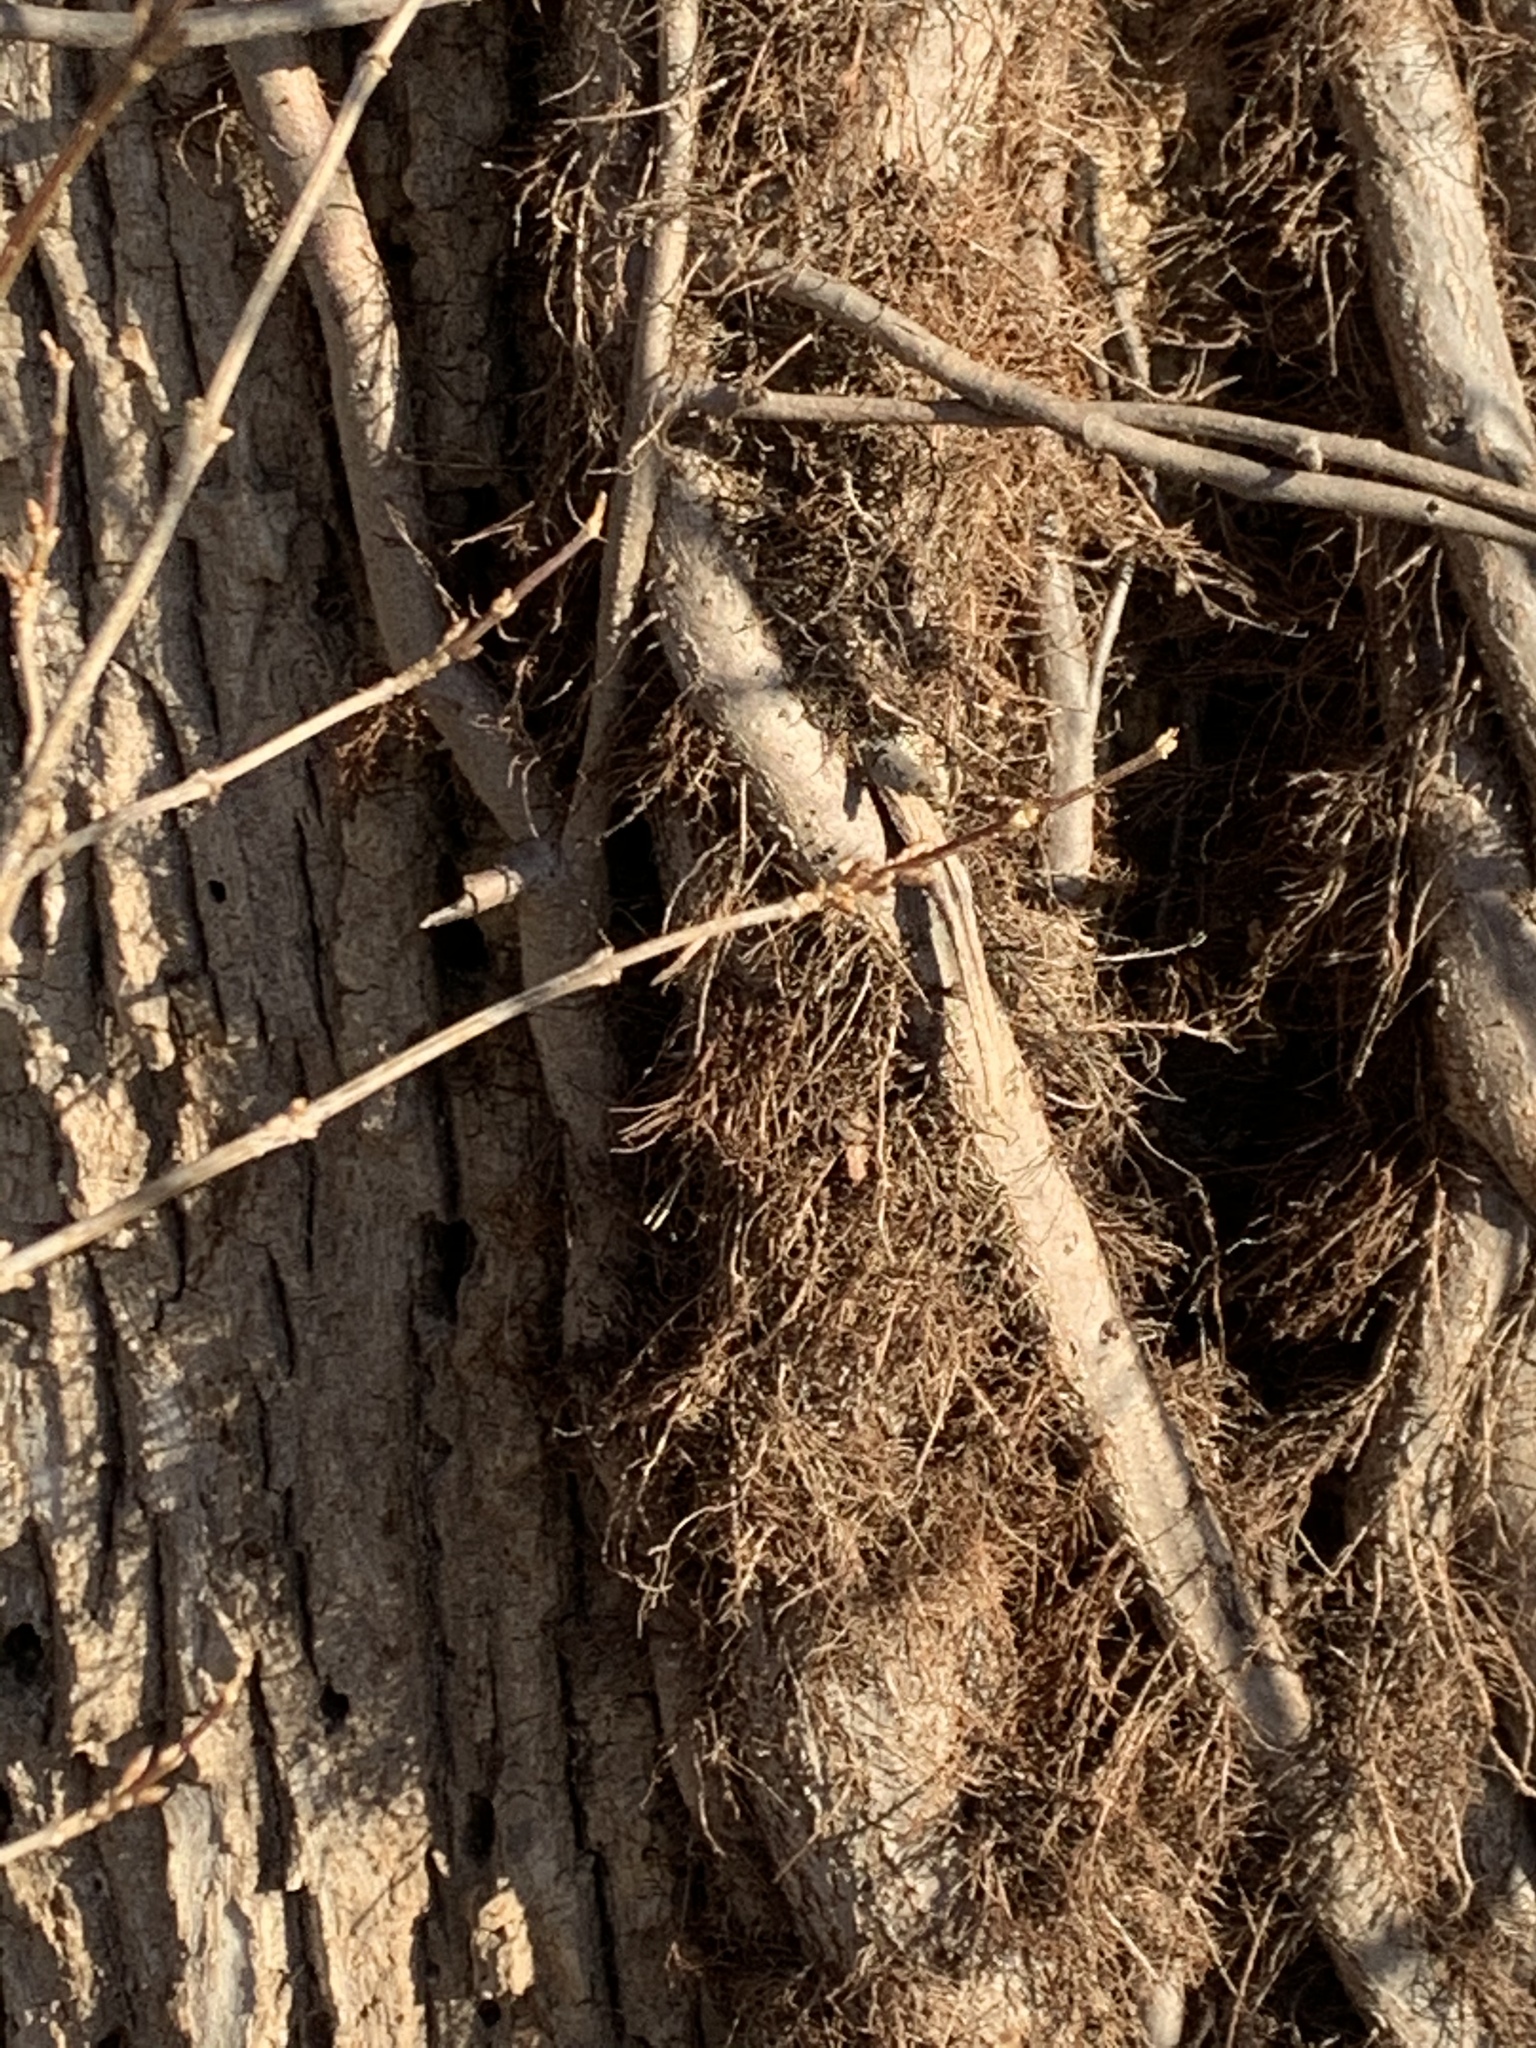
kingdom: Plantae
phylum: Tracheophyta
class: Magnoliopsida
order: Sapindales
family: Anacardiaceae
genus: Toxicodendron
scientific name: Toxicodendron radicans
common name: Poison ivy
